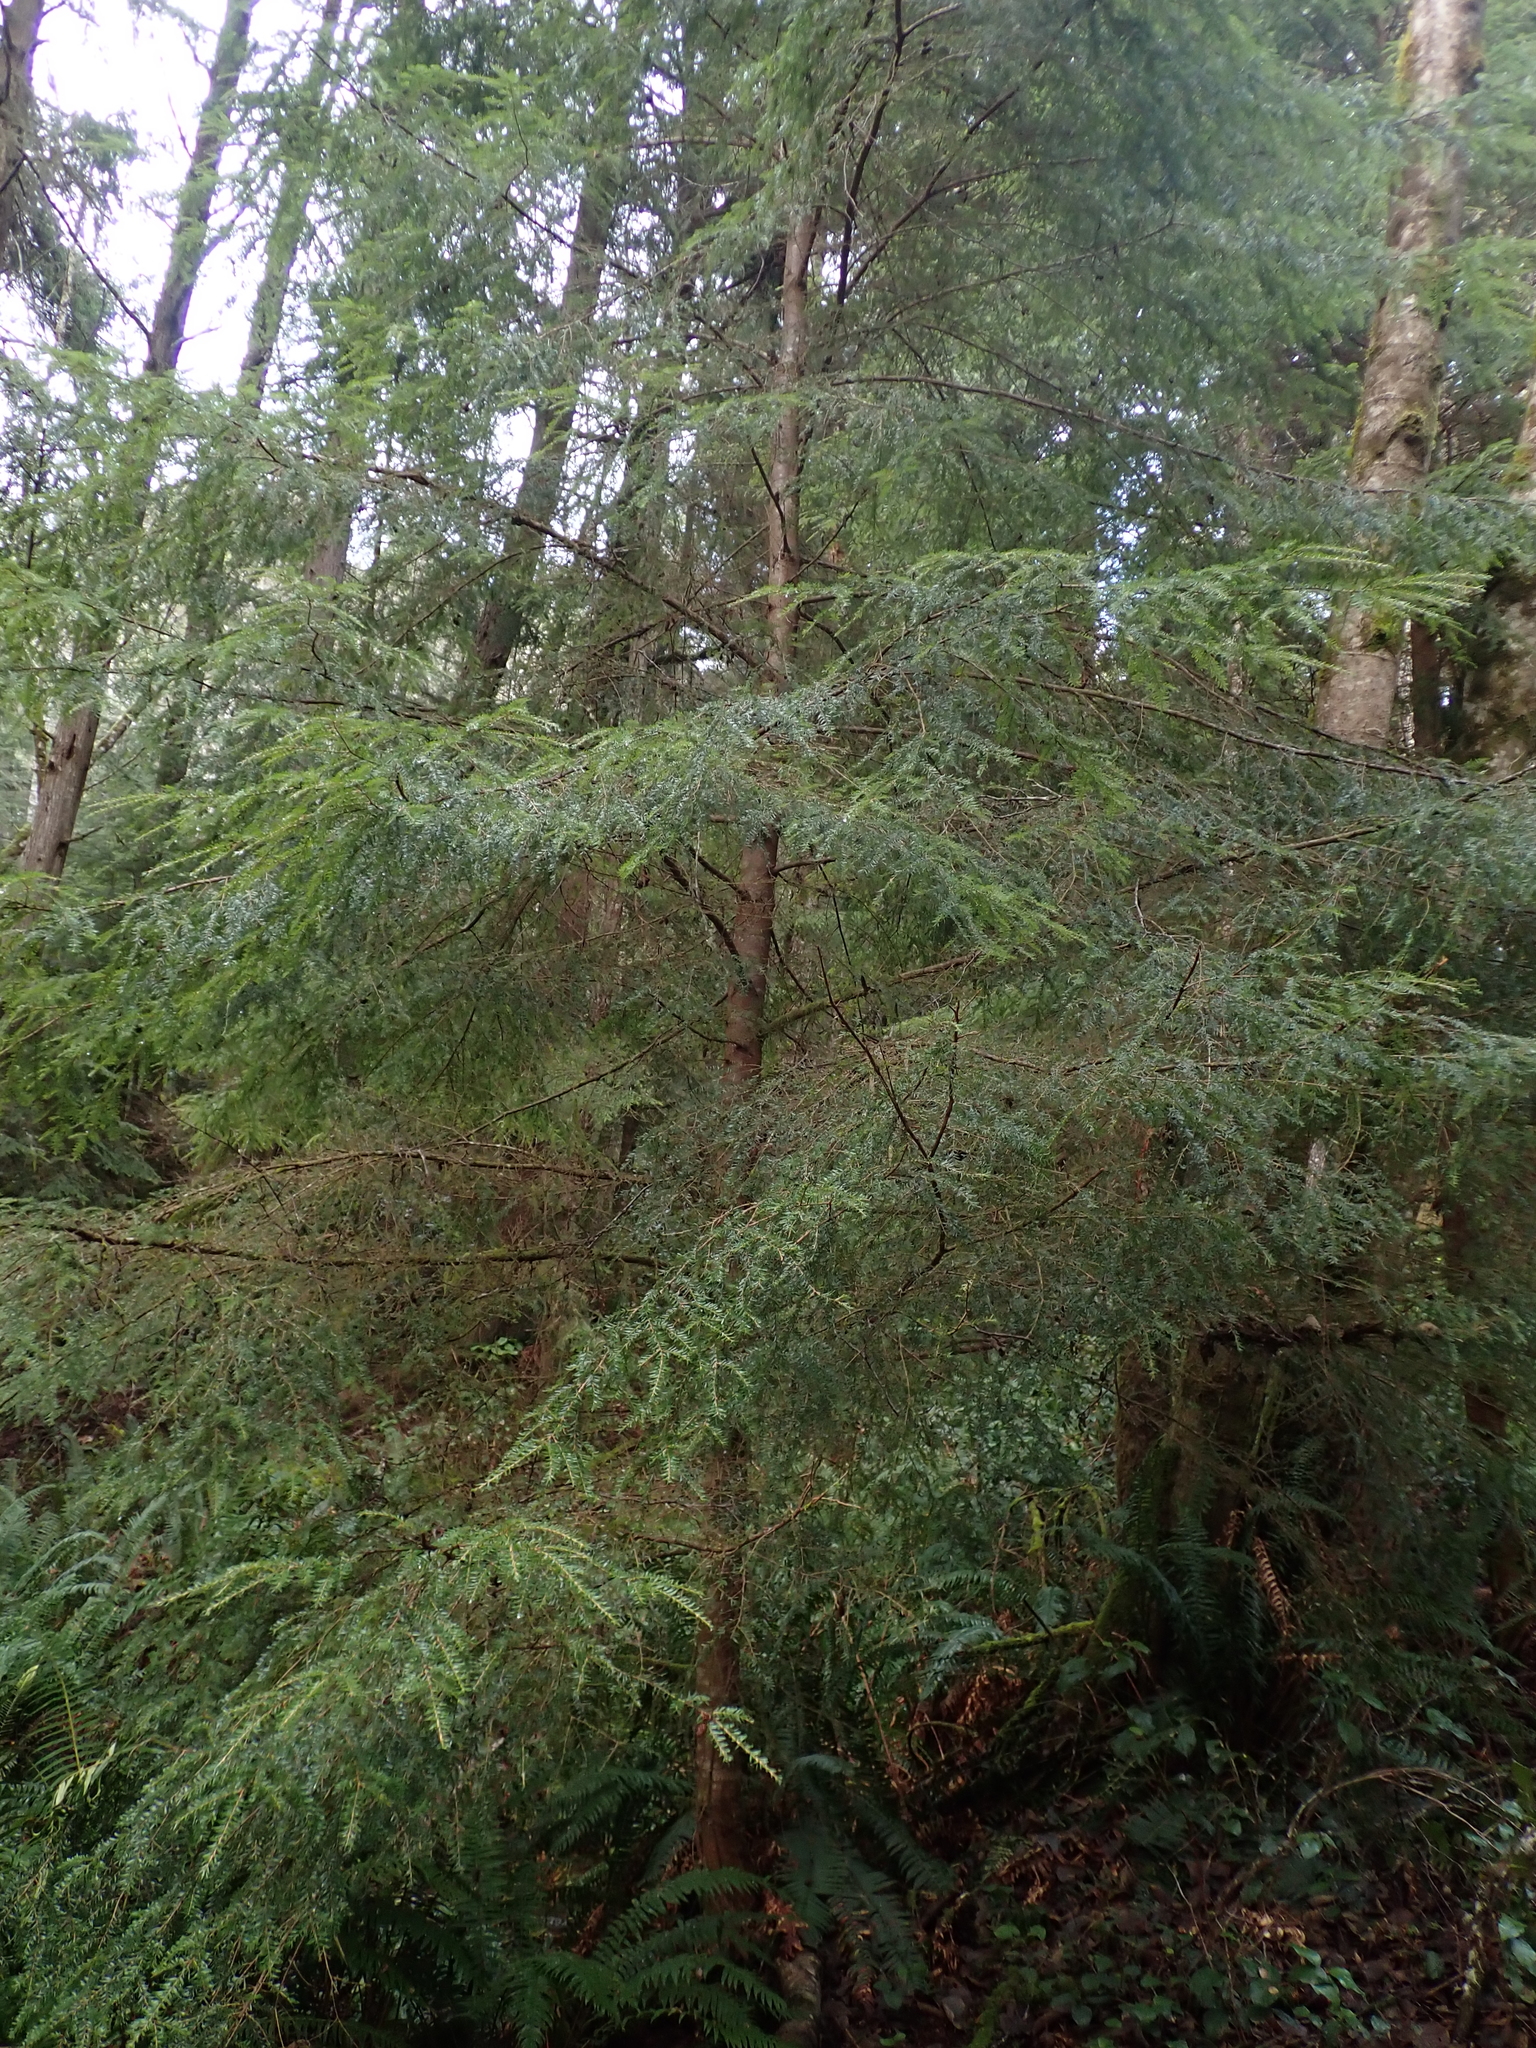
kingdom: Plantae
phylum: Tracheophyta
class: Pinopsida
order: Pinales
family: Pinaceae
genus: Tsuga
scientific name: Tsuga heterophylla
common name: Western hemlock
